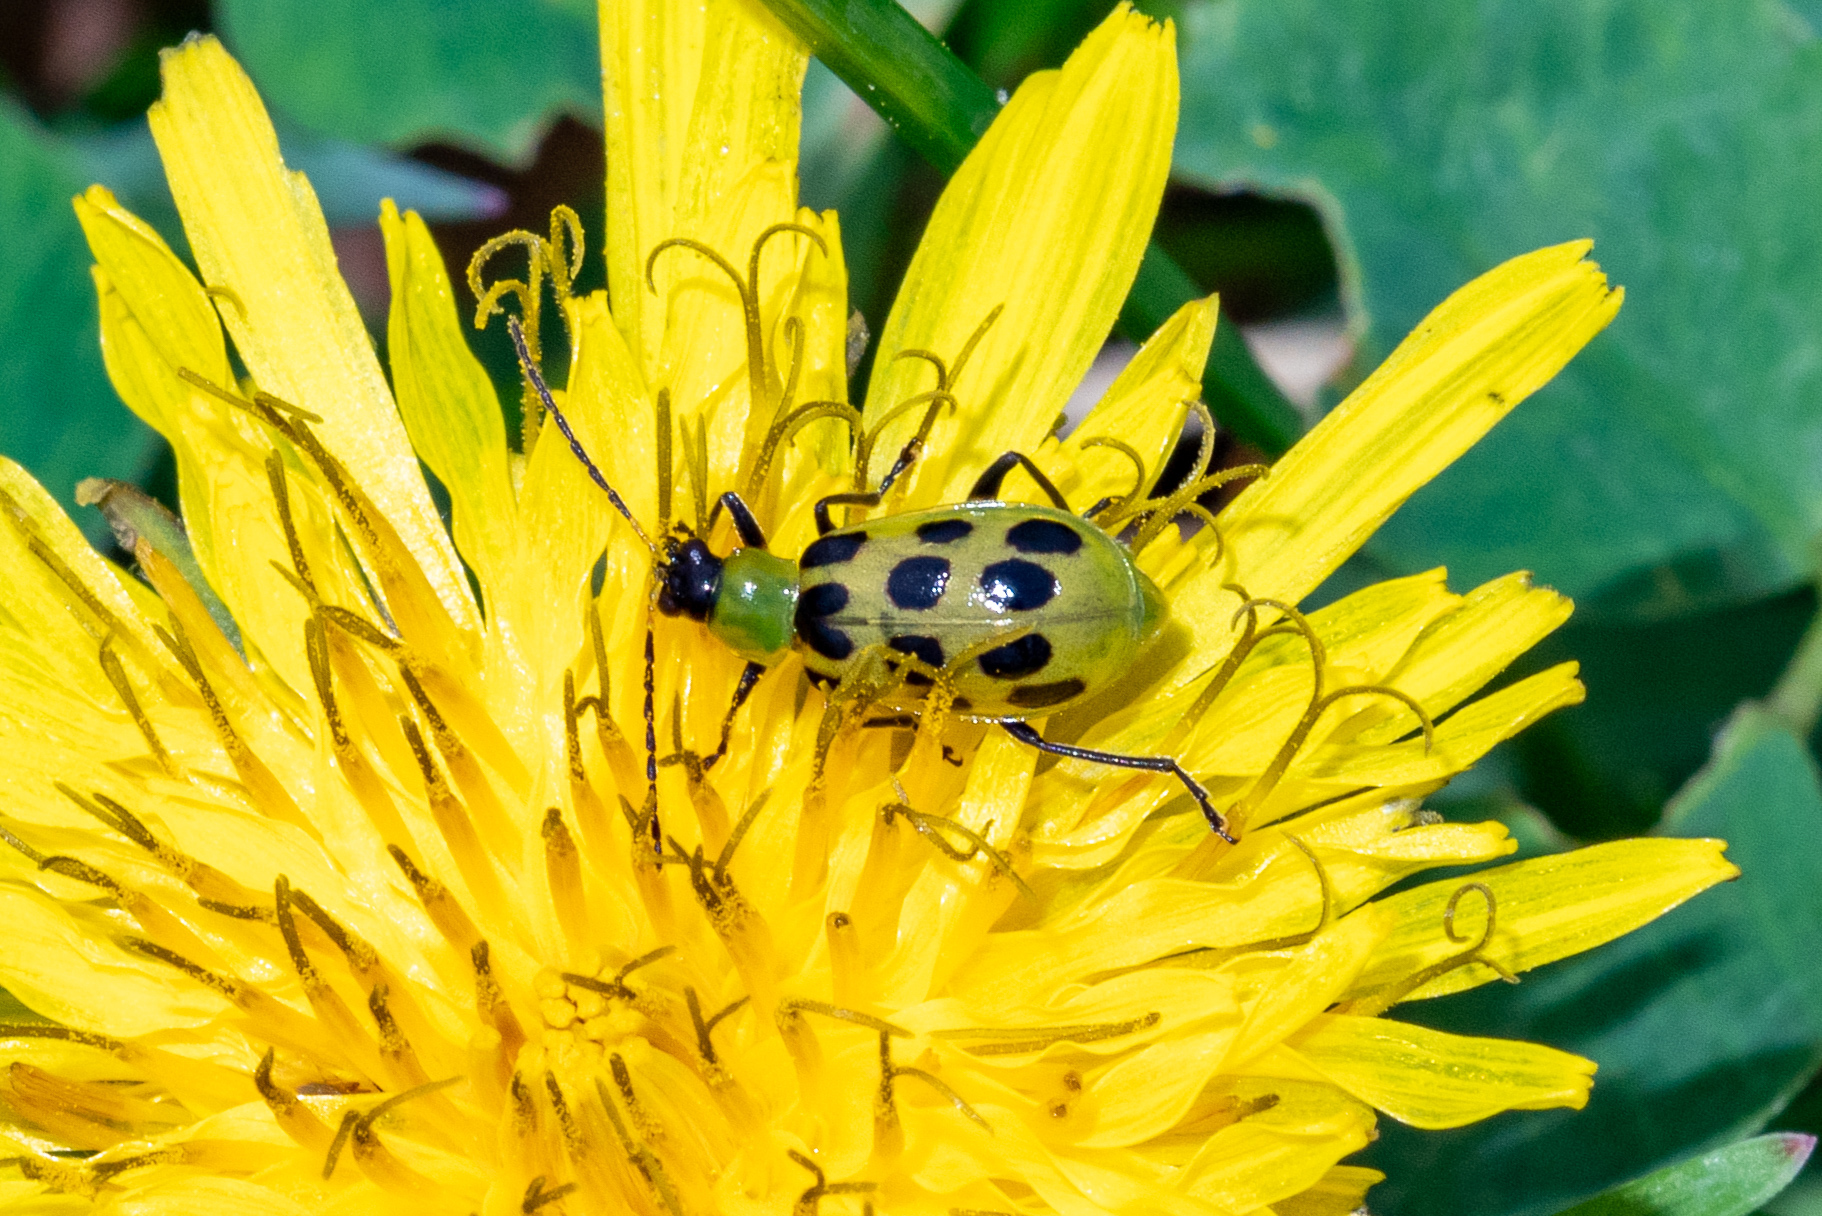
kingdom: Animalia
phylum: Arthropoda
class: Insecta
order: Coleoptera
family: Chrysomelidae
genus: Diabrotica
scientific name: Diabrotica undecimpunctata
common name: Spotted cucumber beetle
